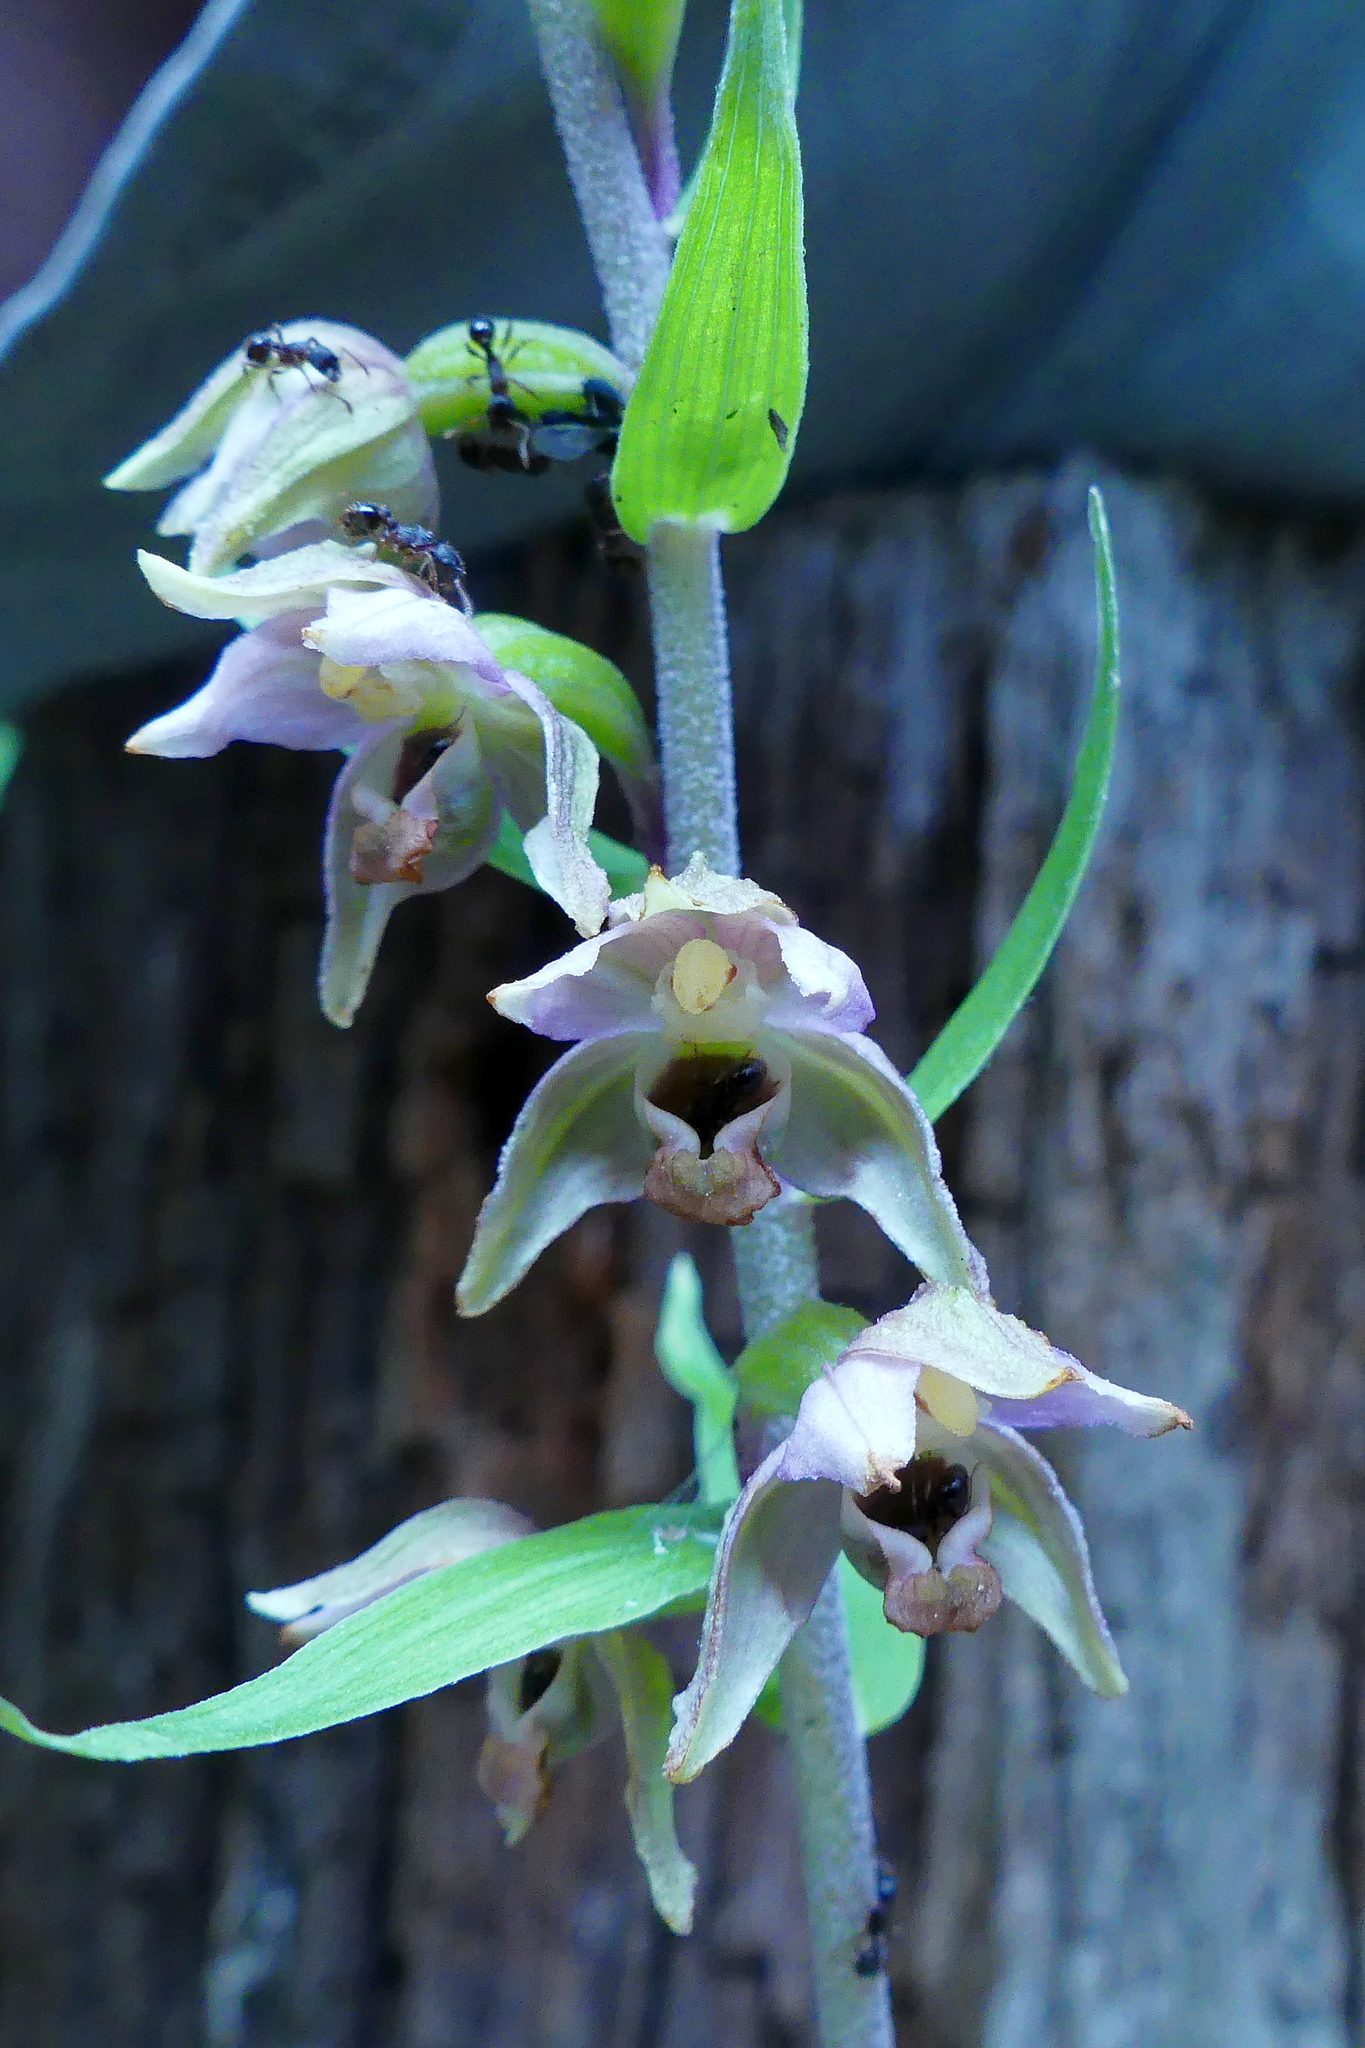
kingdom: Plantae
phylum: Tracheophyta
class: Liliopsida
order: Asparagales
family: Orchidaceae
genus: Epipactis
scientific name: Epipactis helleborine
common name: Broad-leaved helleborine
